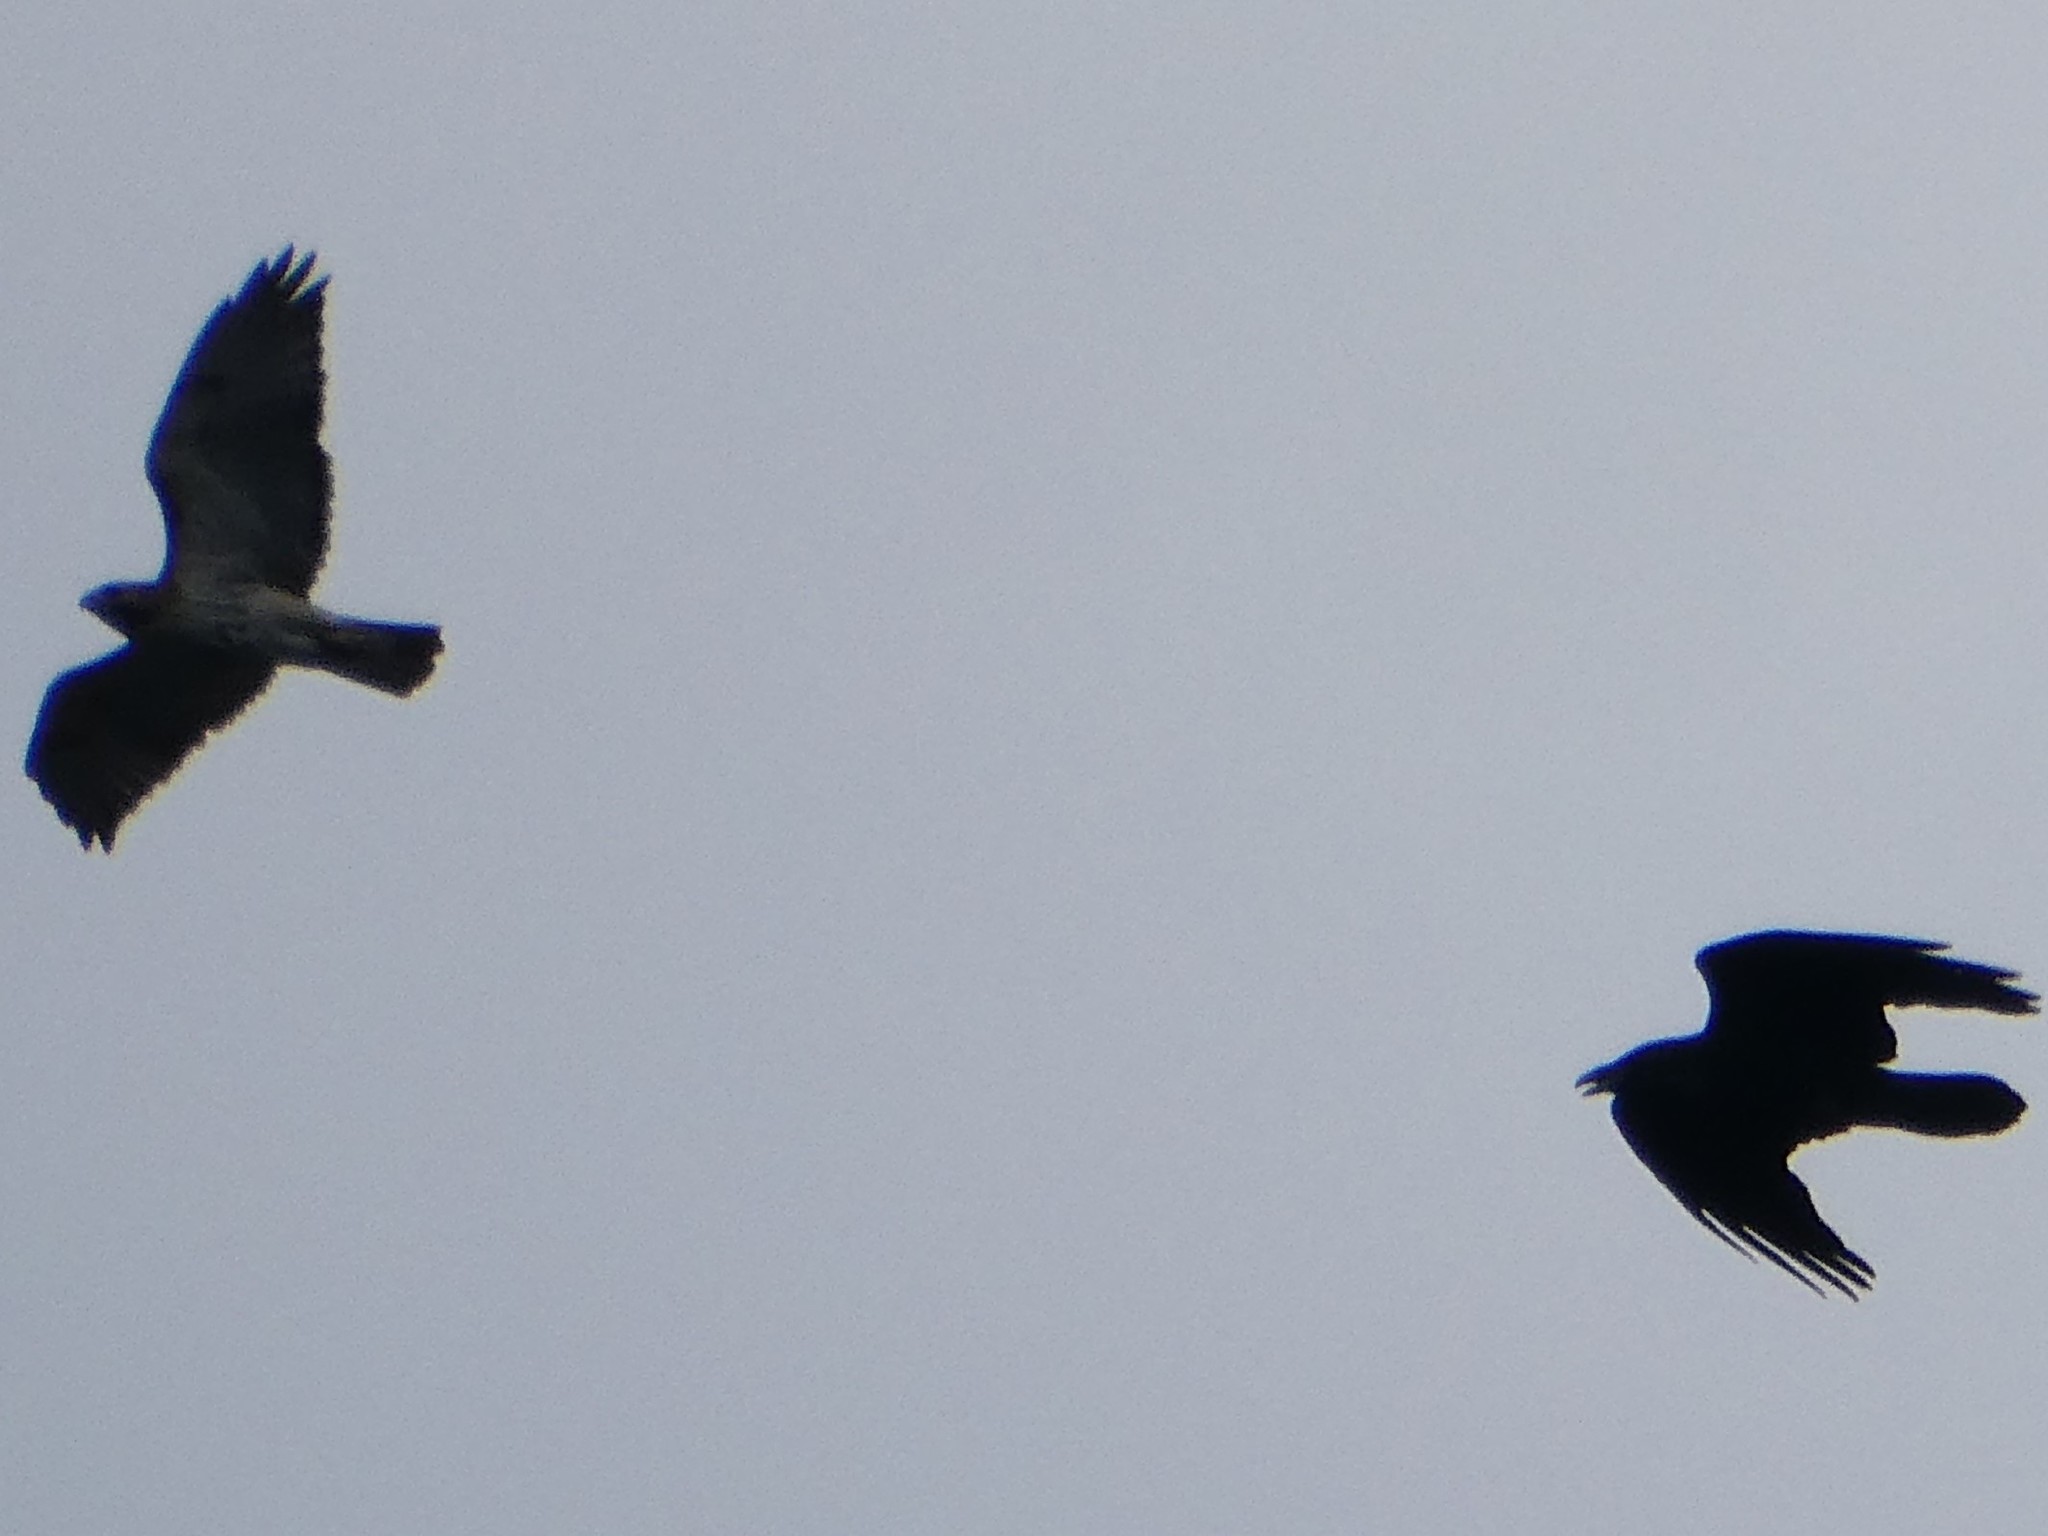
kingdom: Animalia
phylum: Chordata
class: Aves
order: Accipitriformes
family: Accipitridae
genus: Buteo
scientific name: Buteo jamaicensis
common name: Red-tailed hawk
